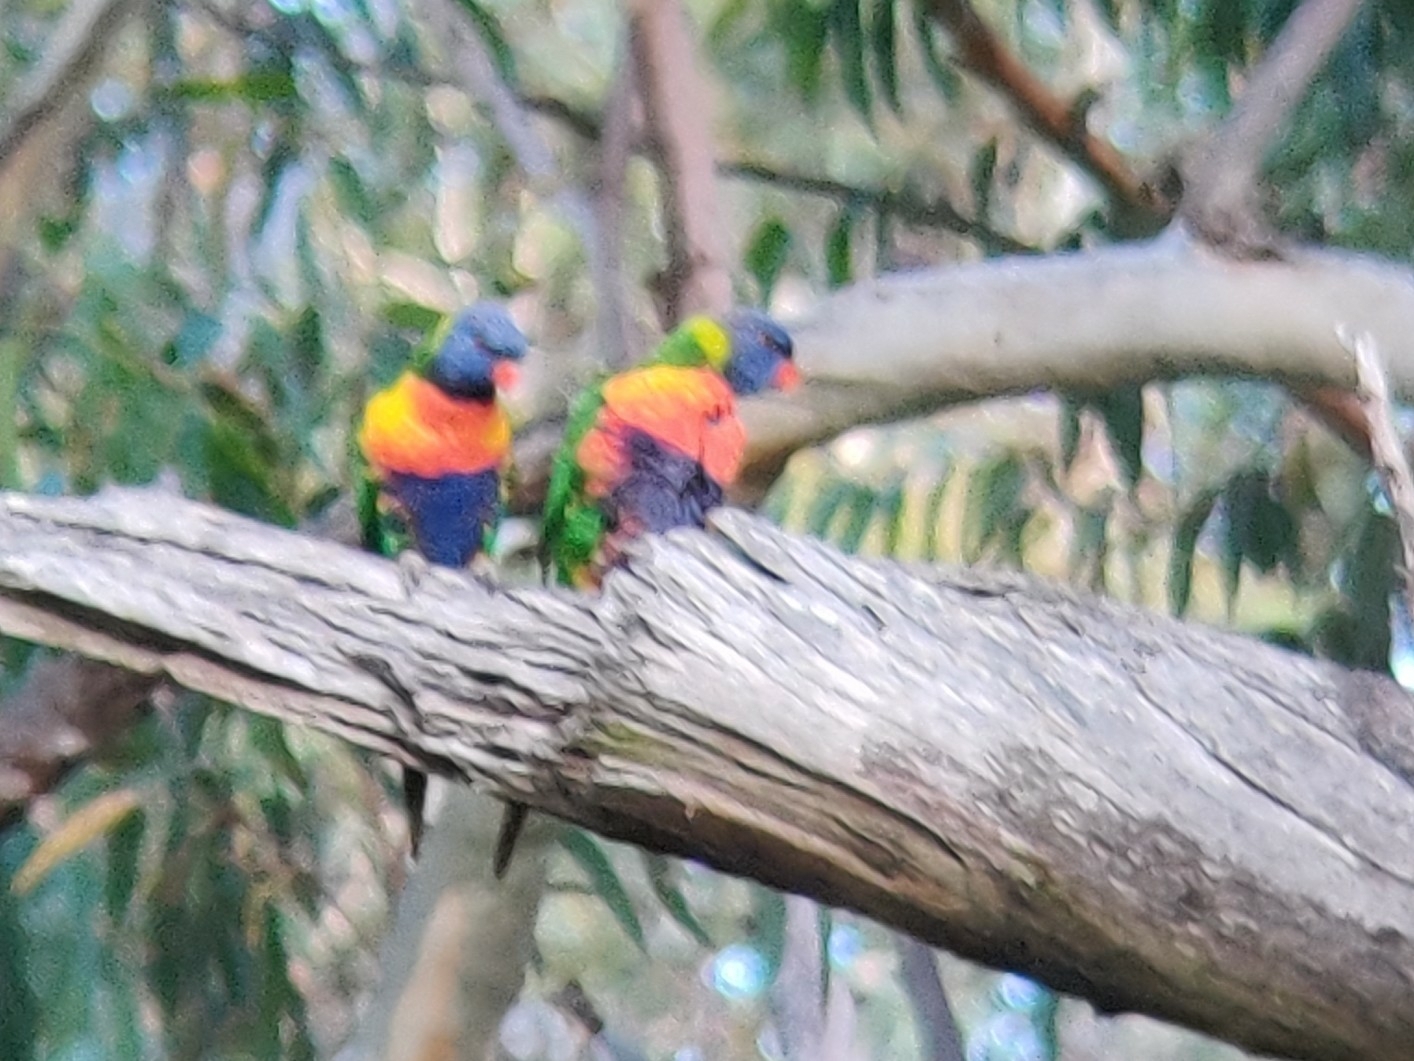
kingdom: Animalia
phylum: Chordata
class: Aves
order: Psittaciformes
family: Psittacidae
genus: Trichoglossus
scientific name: Trichoglossus haematodus
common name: Coconut lorikeet
